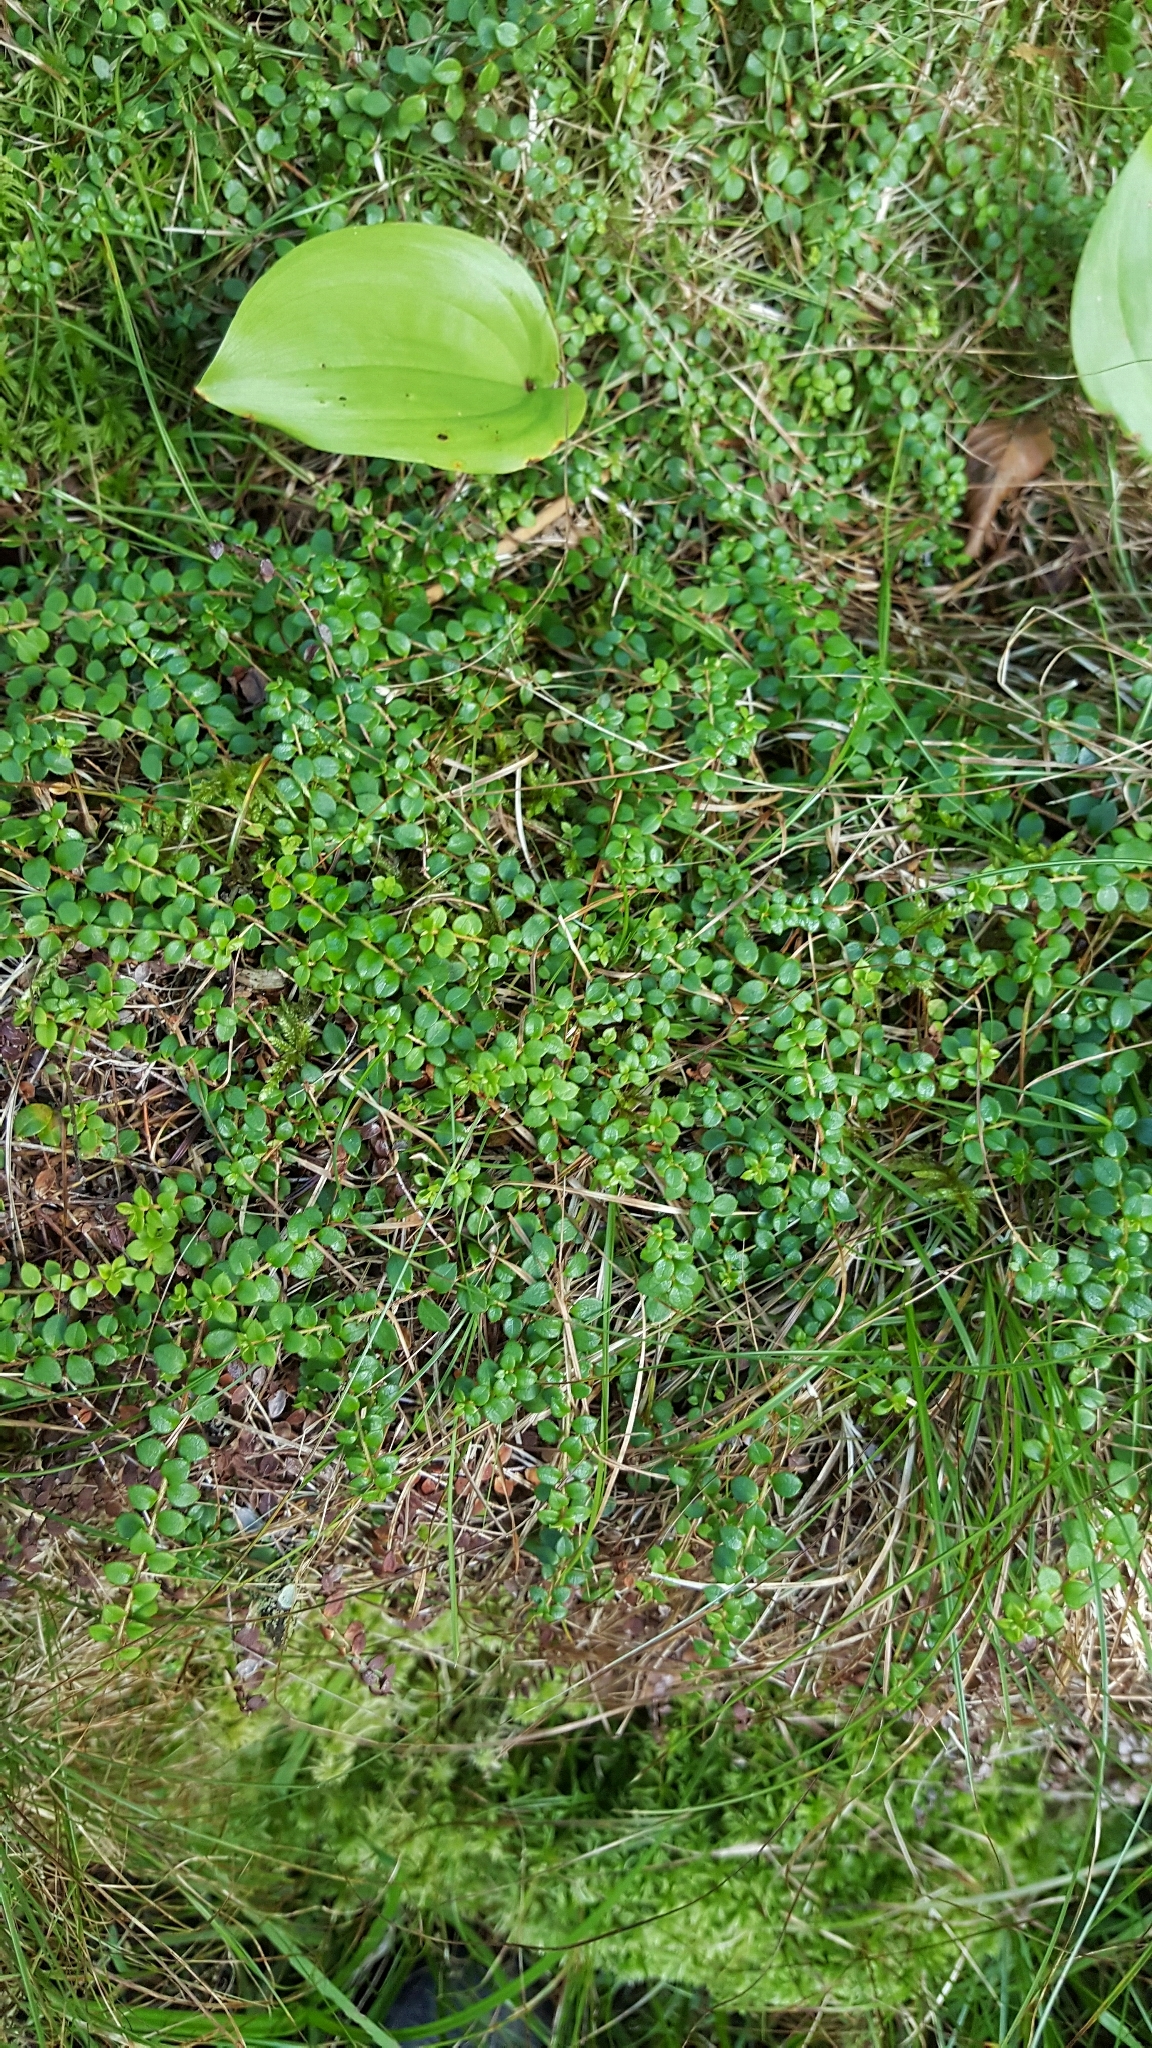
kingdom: Plantae
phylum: Tracheophyta
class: Magnoliopsida
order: Ericales
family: Ericaceae
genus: Gaultheria
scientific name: Gaultheria hispidula
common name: Cancer wintergreen
